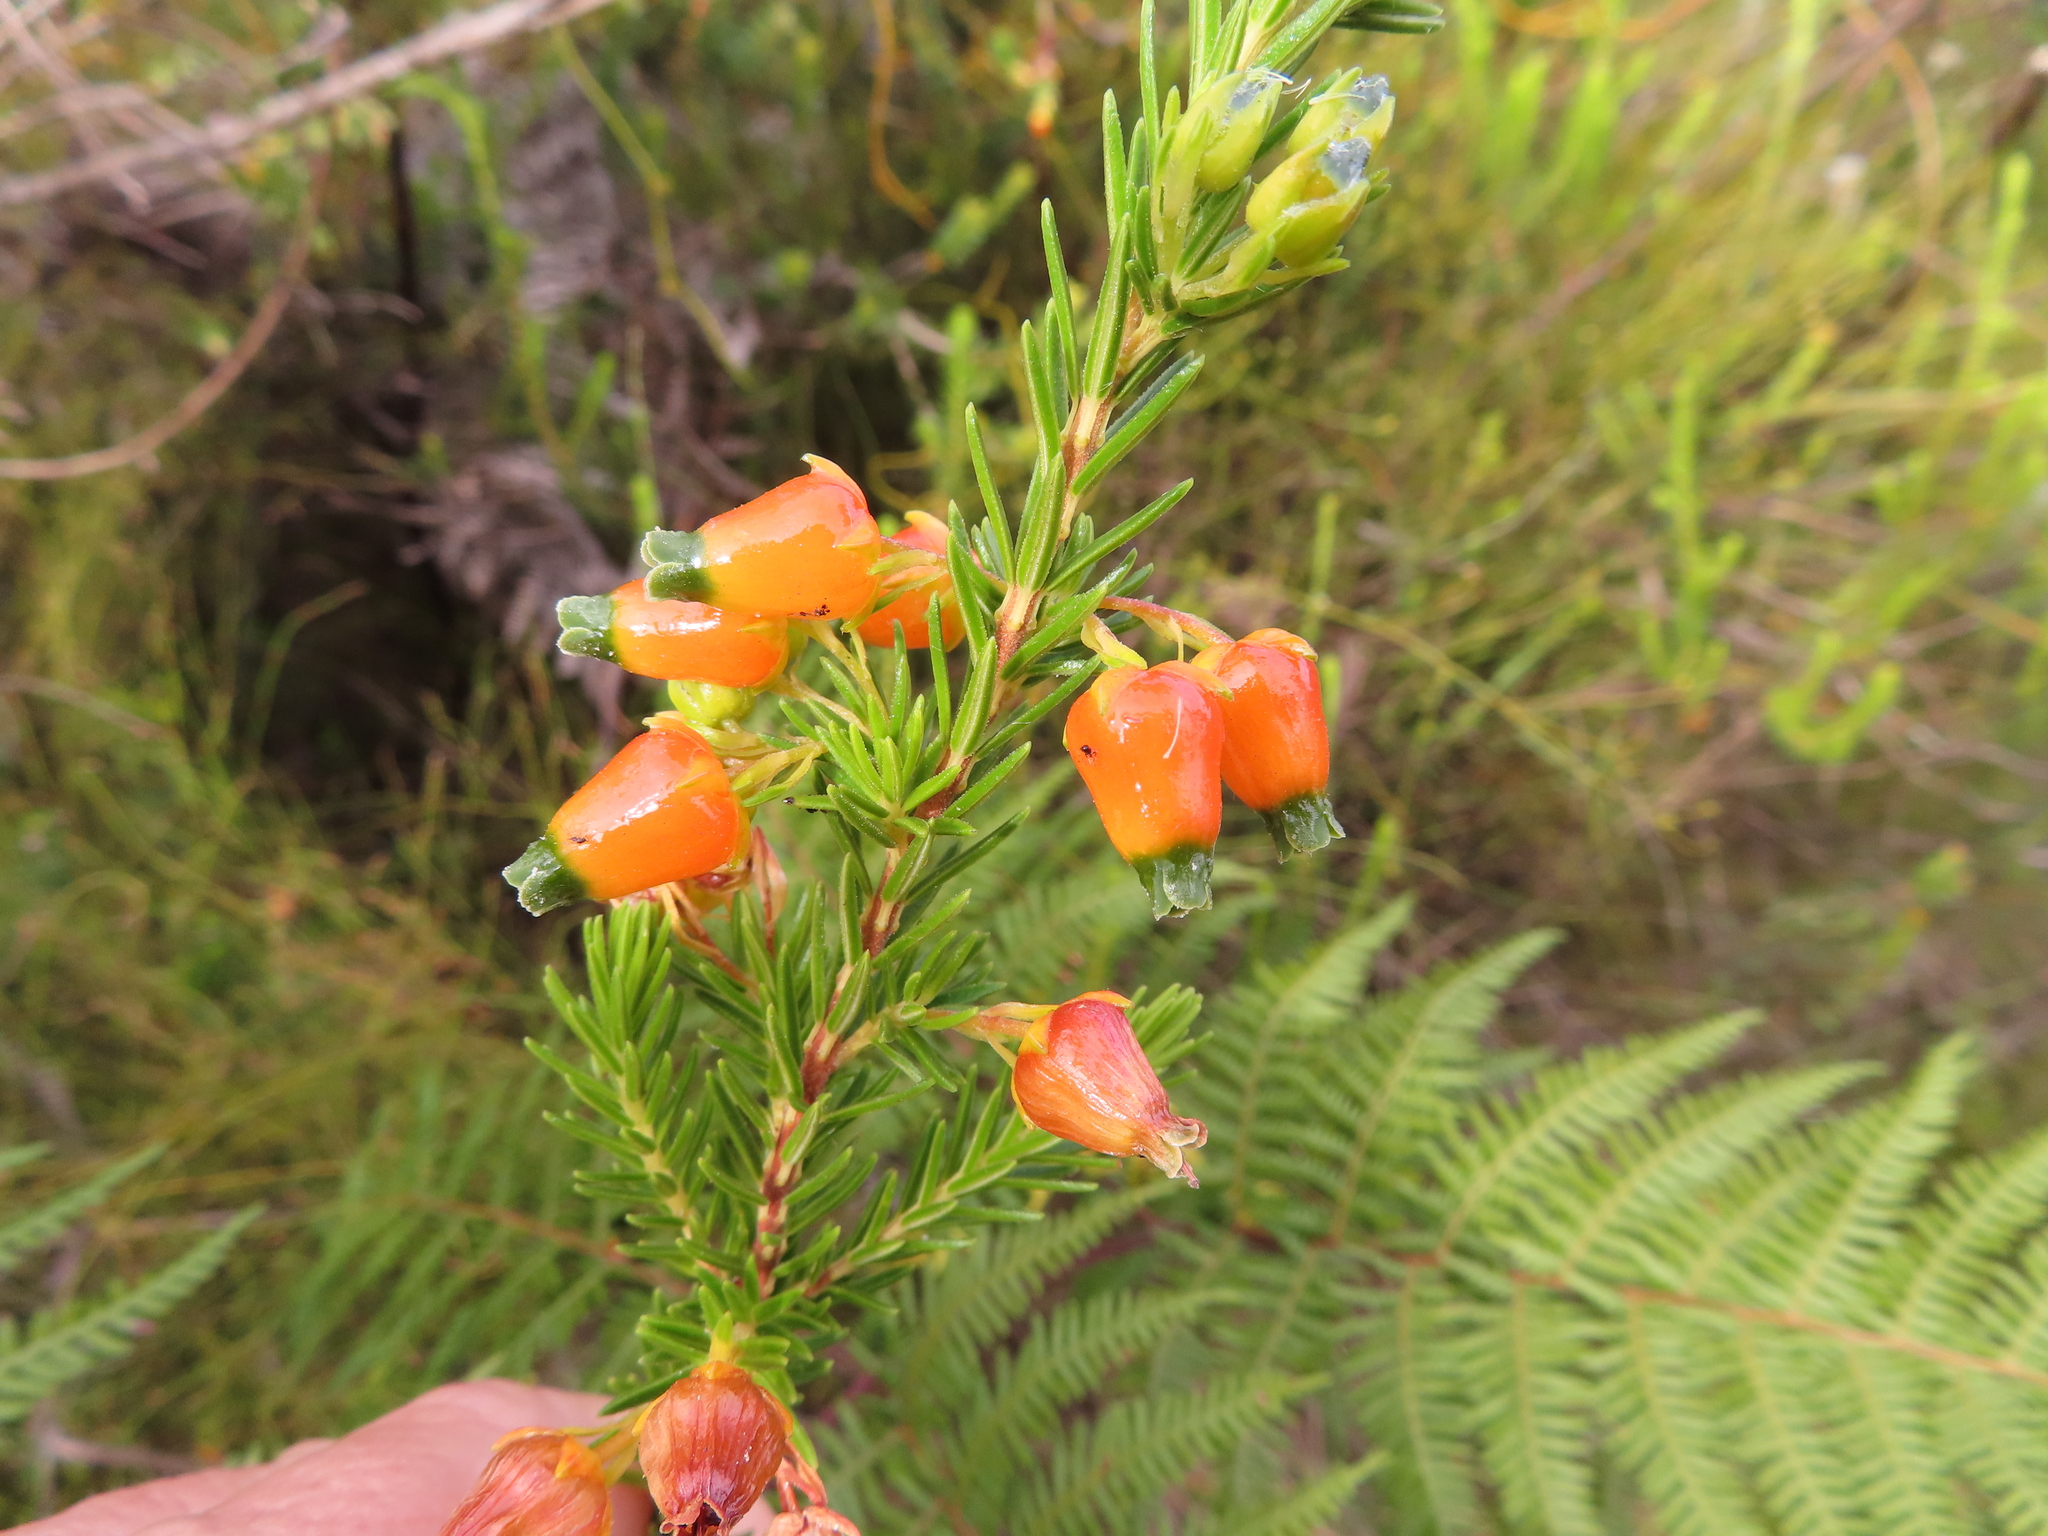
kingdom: Plantae
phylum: Tracheophyta
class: Magnoliopsida
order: Ericales
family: Ericaceae
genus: Erica
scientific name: Erica blenna
